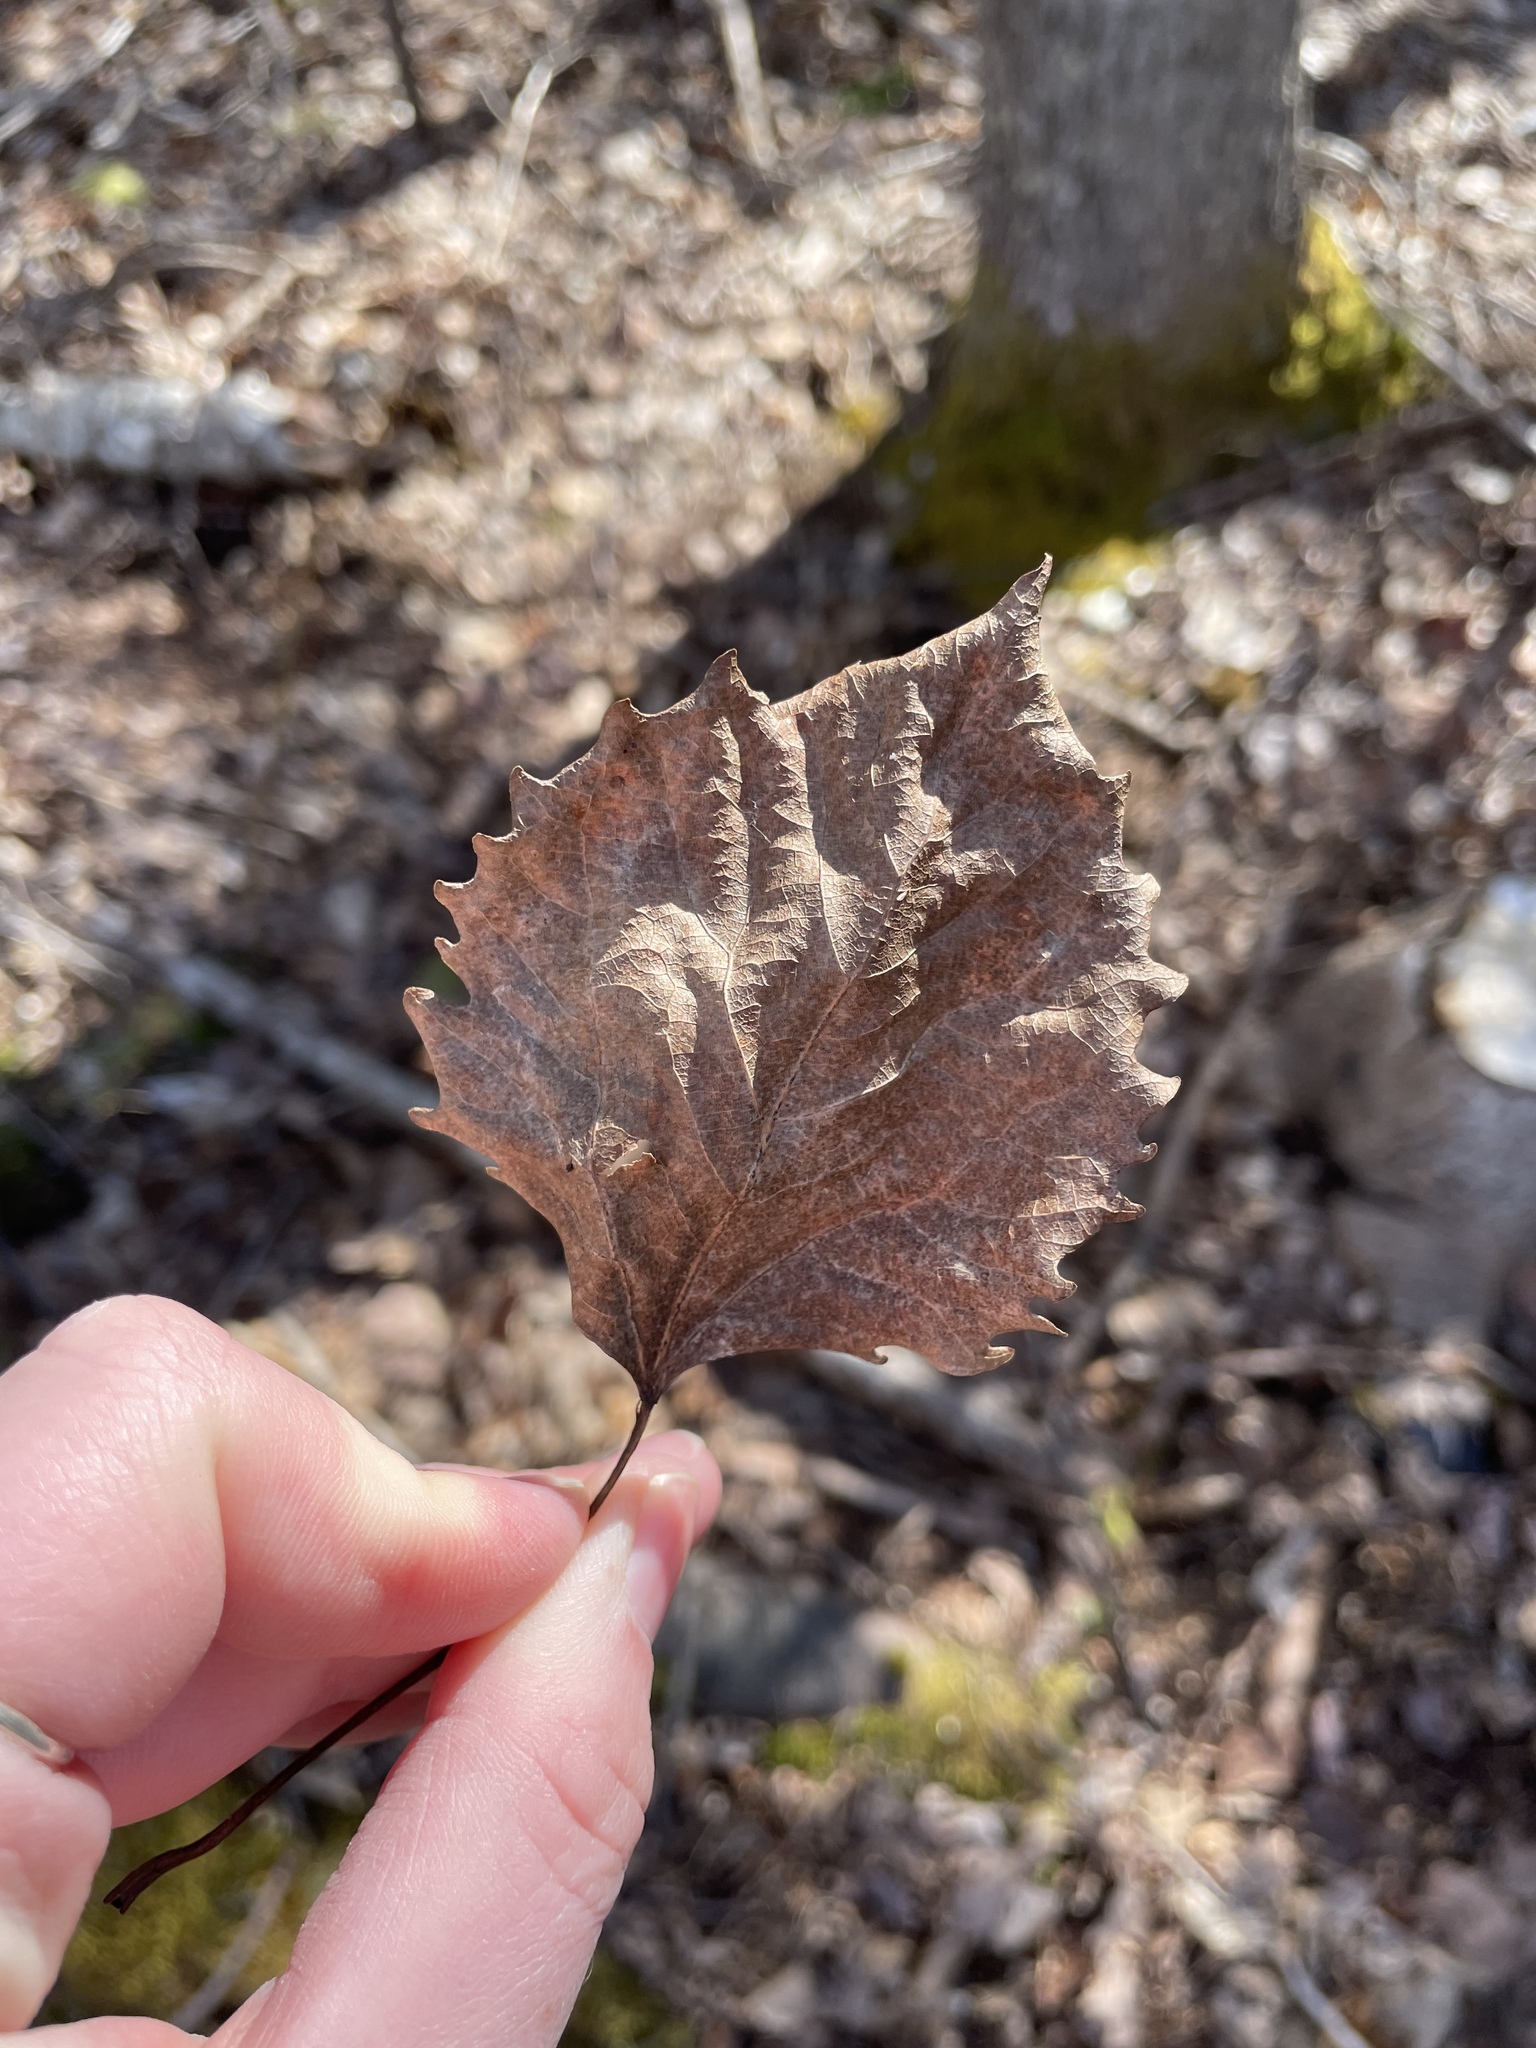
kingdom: Plantae
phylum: Tracheophyta
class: Magnoliopsida
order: Malpighiales
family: Salicaceae
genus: Populus
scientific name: Populus grandidentata
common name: Bigtooth aspen
